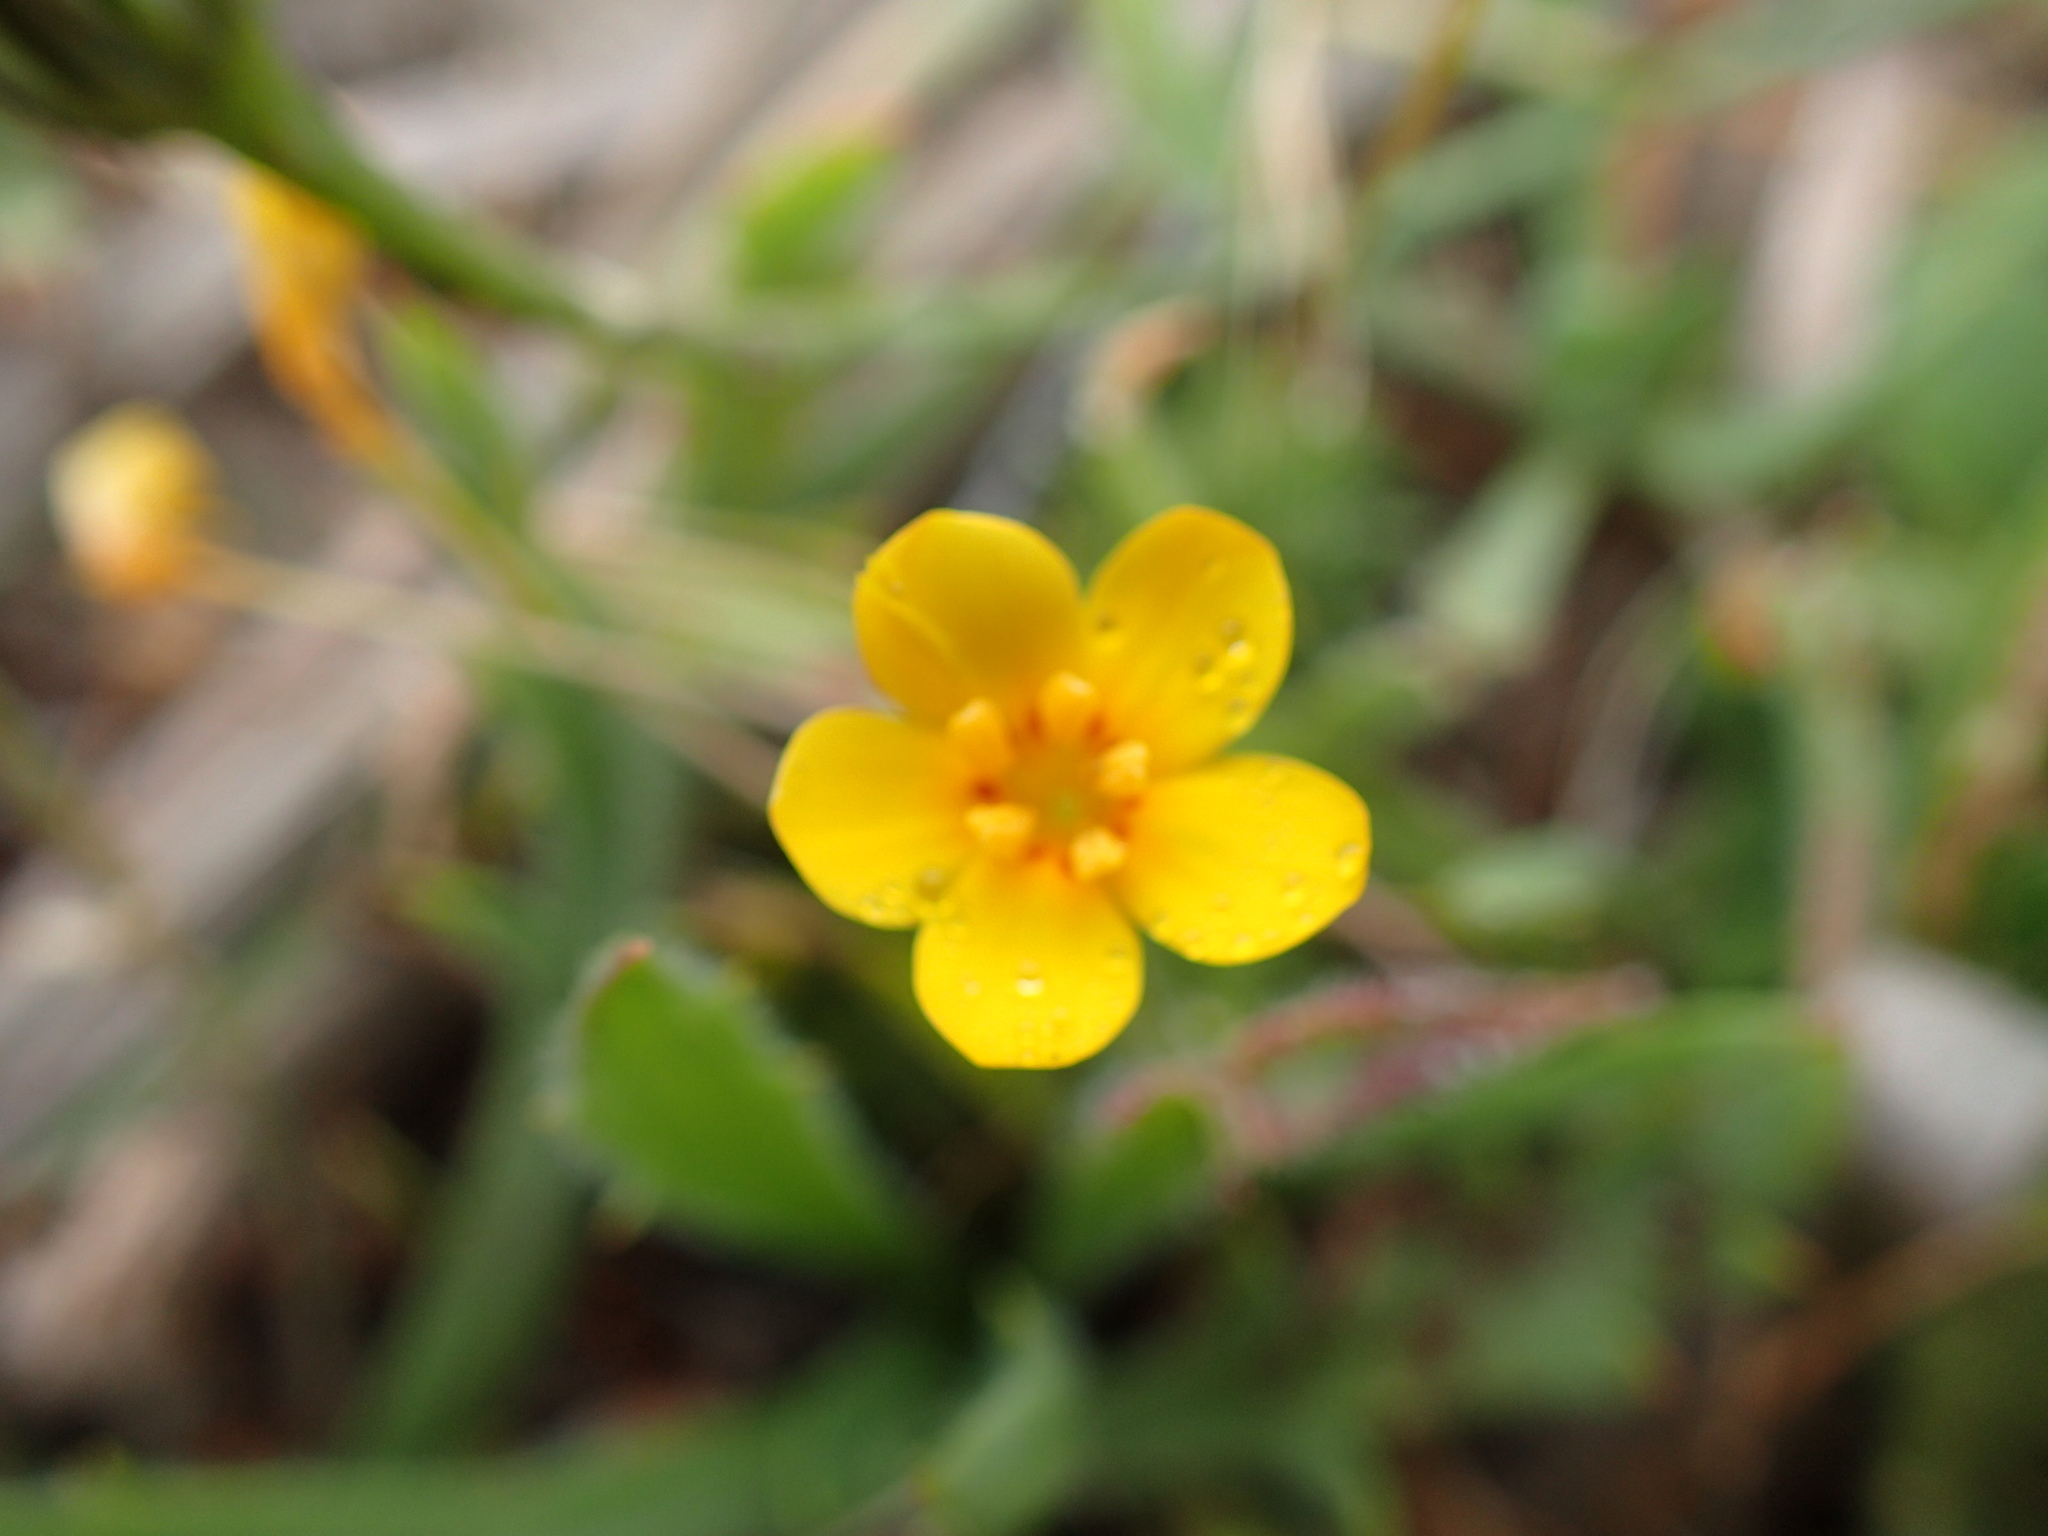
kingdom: Plantae
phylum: Tracheophyta
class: Magnoliopsida
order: Ericales
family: Polemoniaceae
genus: Leptosiphon
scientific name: Leptosiphon croceus
